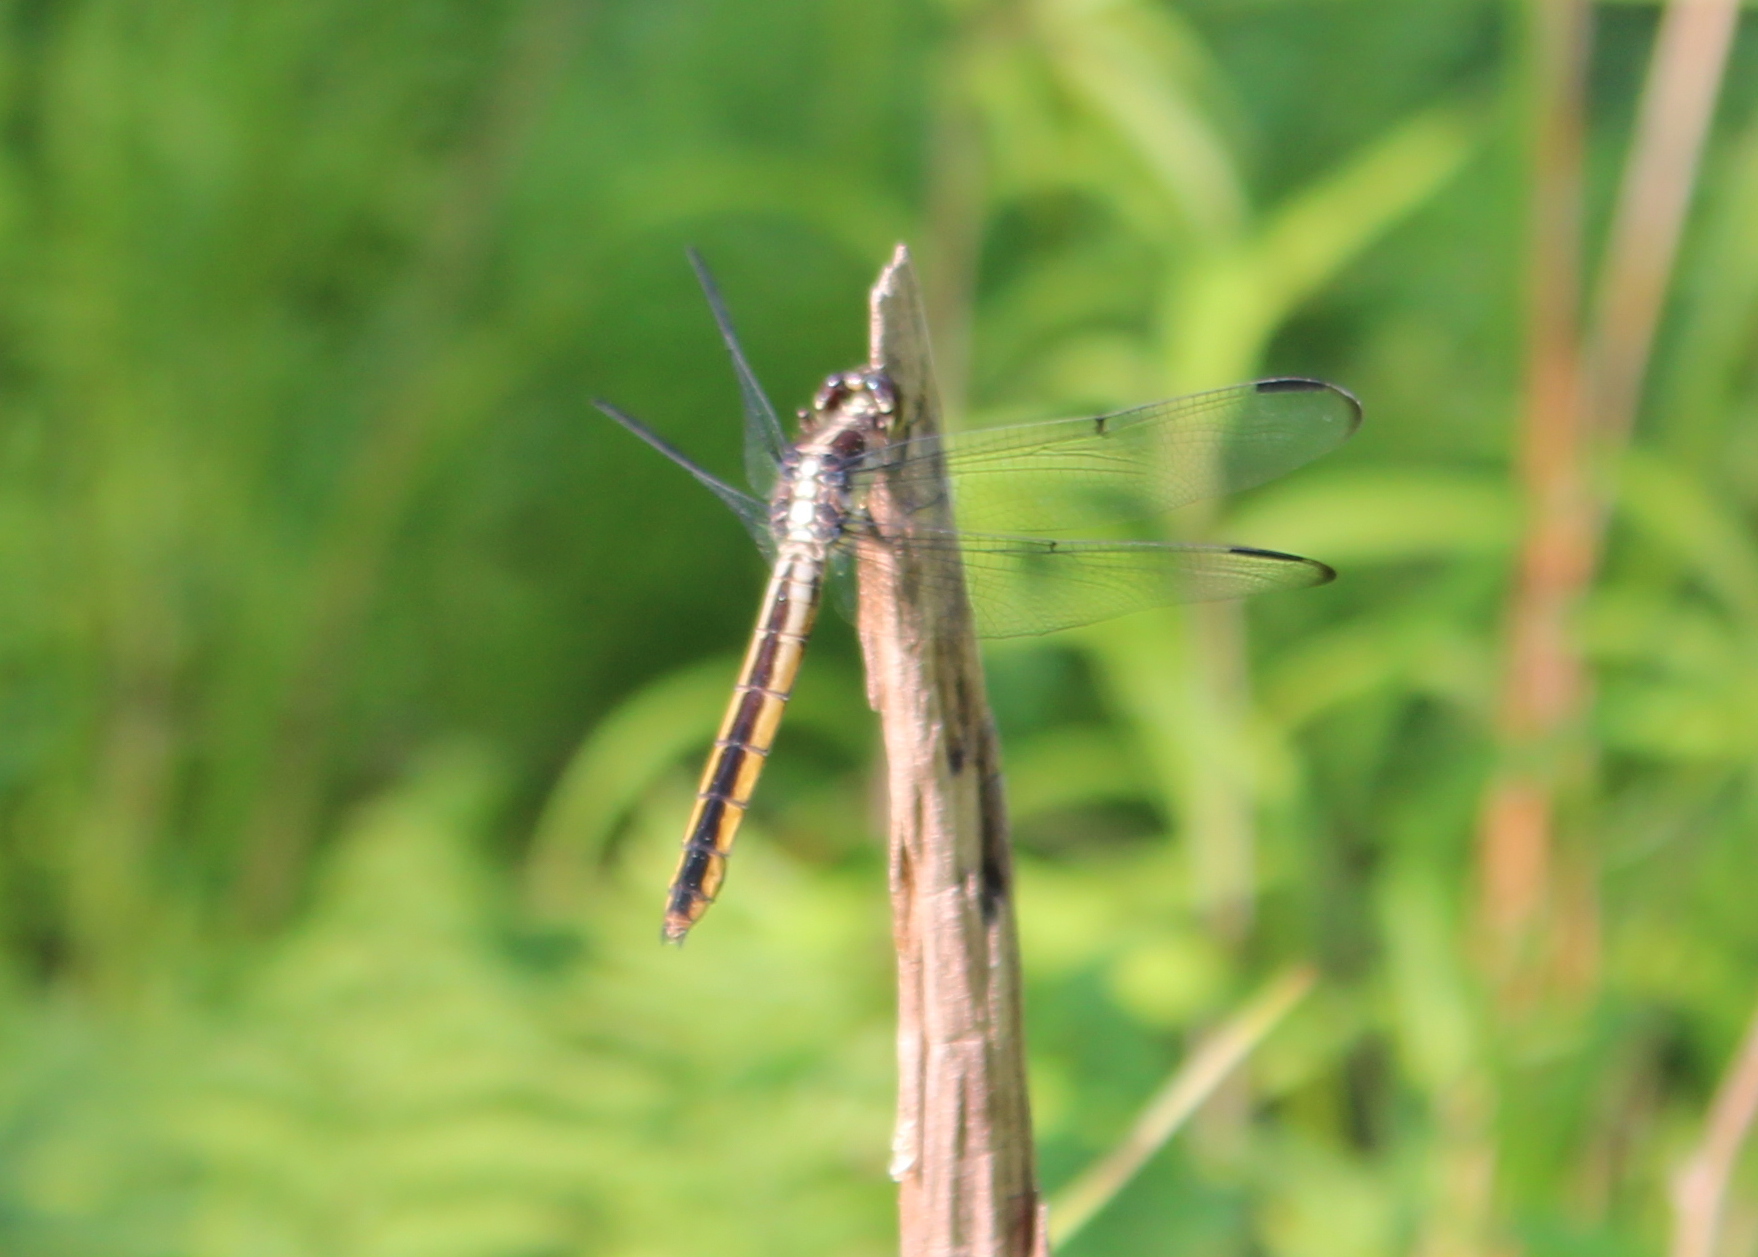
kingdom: Animalia
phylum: Arthropoda
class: Insecta
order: Odonata
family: Libellulidae
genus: Libellula
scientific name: Libellula incesta
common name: Slaty skimmer
